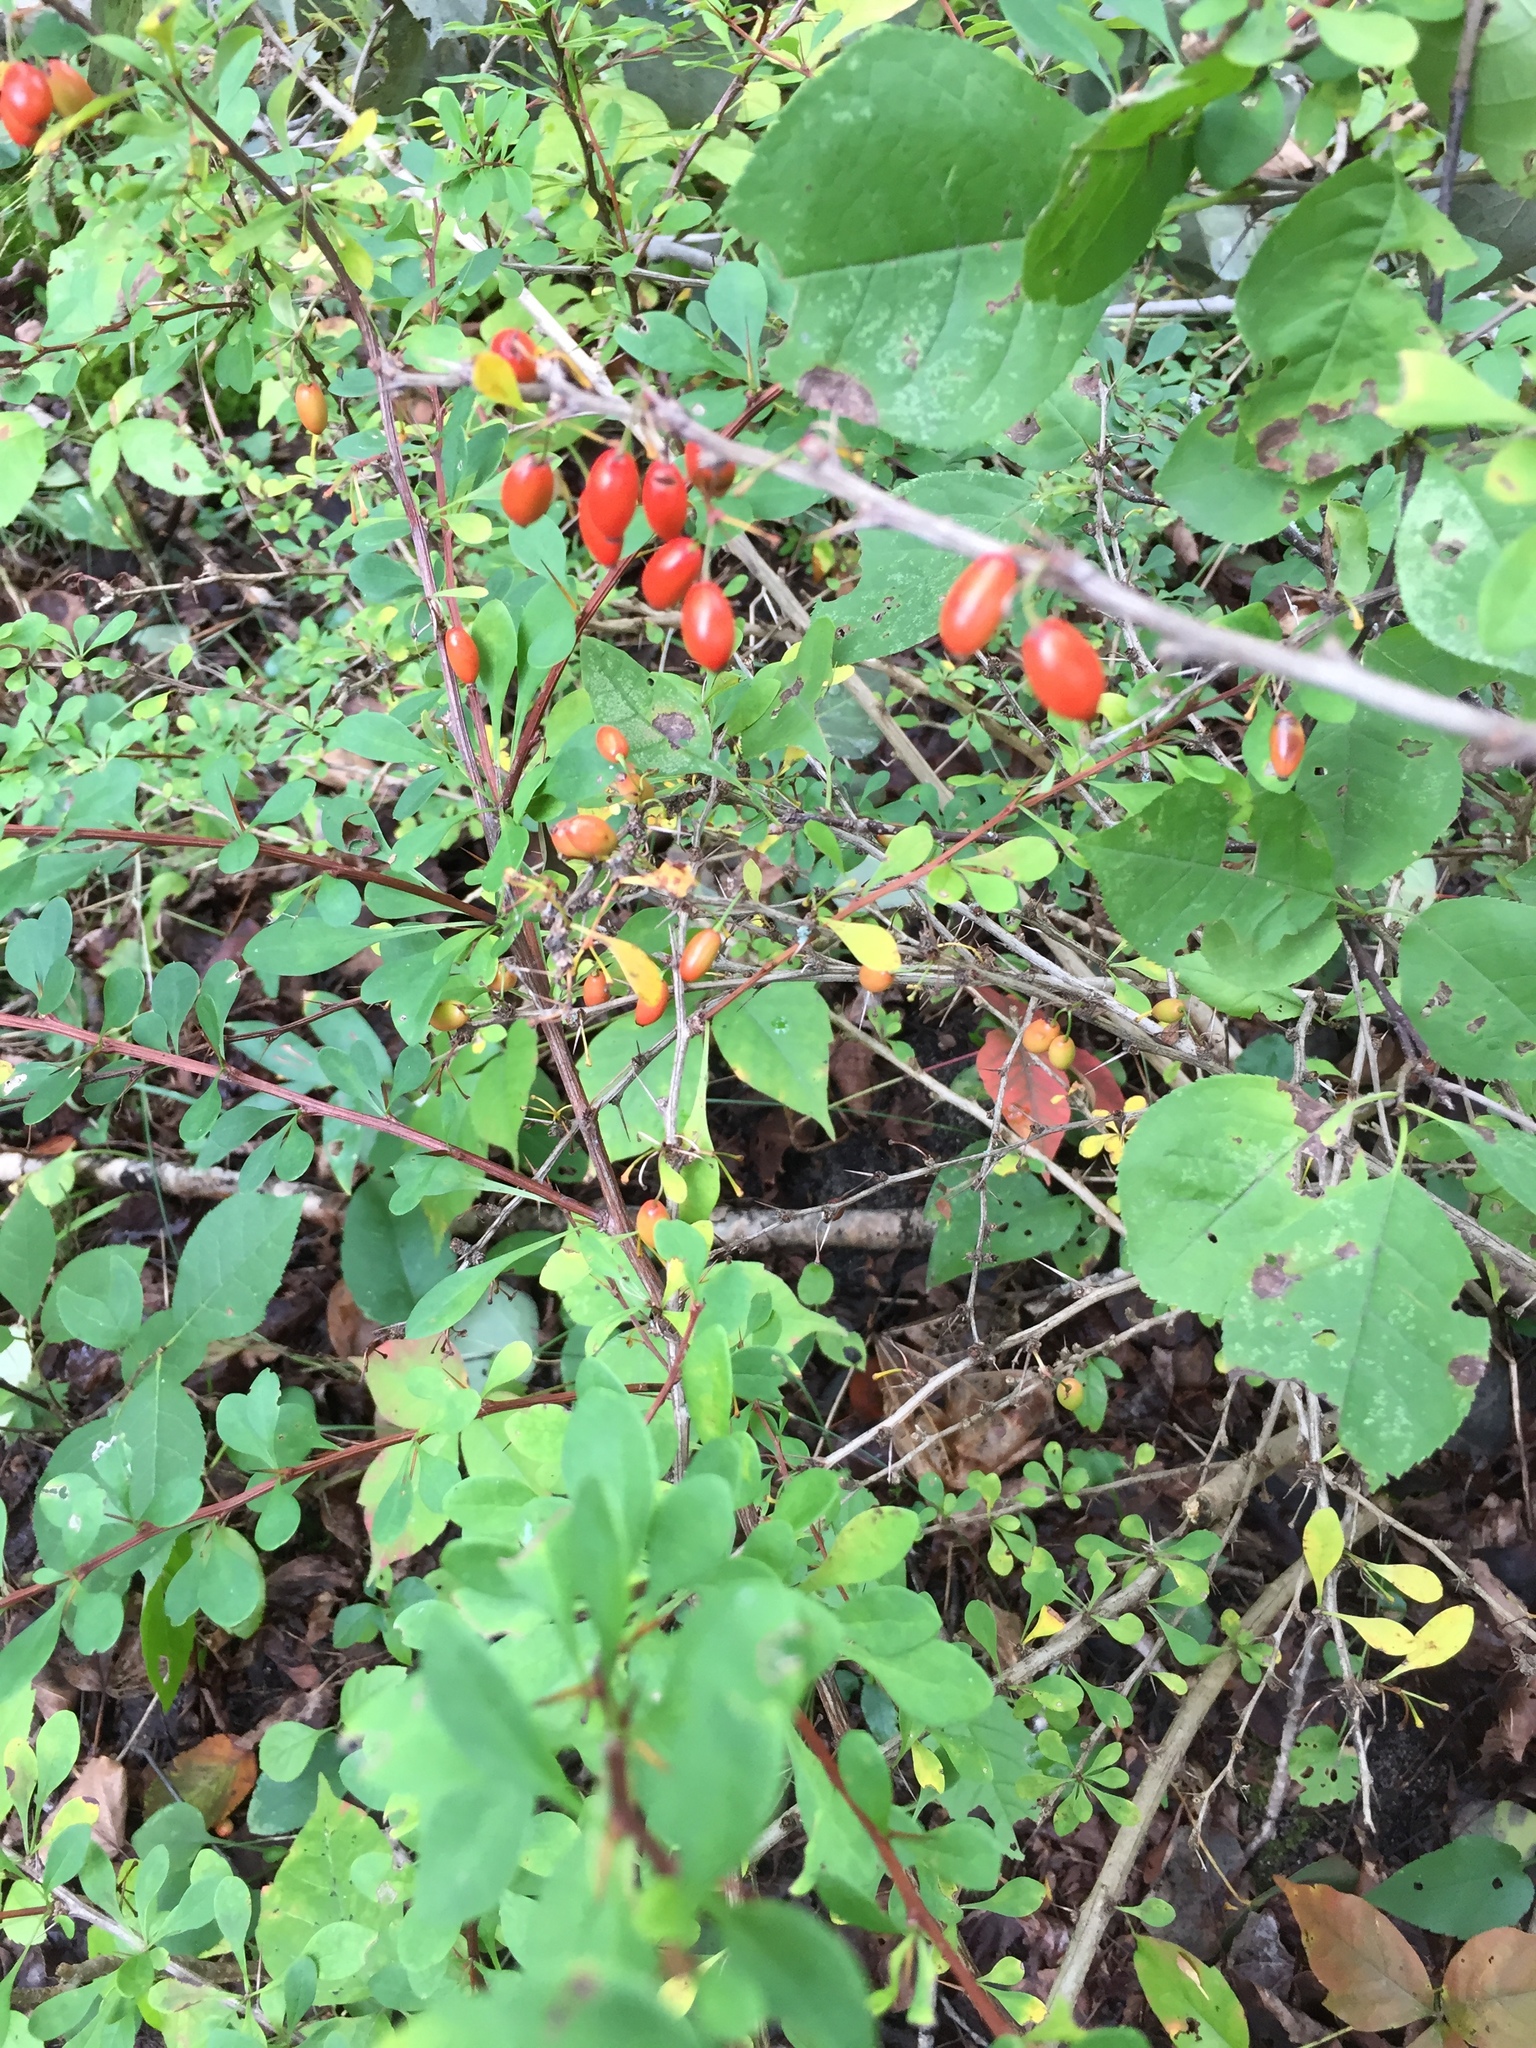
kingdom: Plantae
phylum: Tracheophyta
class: Magnoliopsida
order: Ranunculales
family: Berberidaceae
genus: Berberis
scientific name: Berberis thunbergii
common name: Japanese barberry
